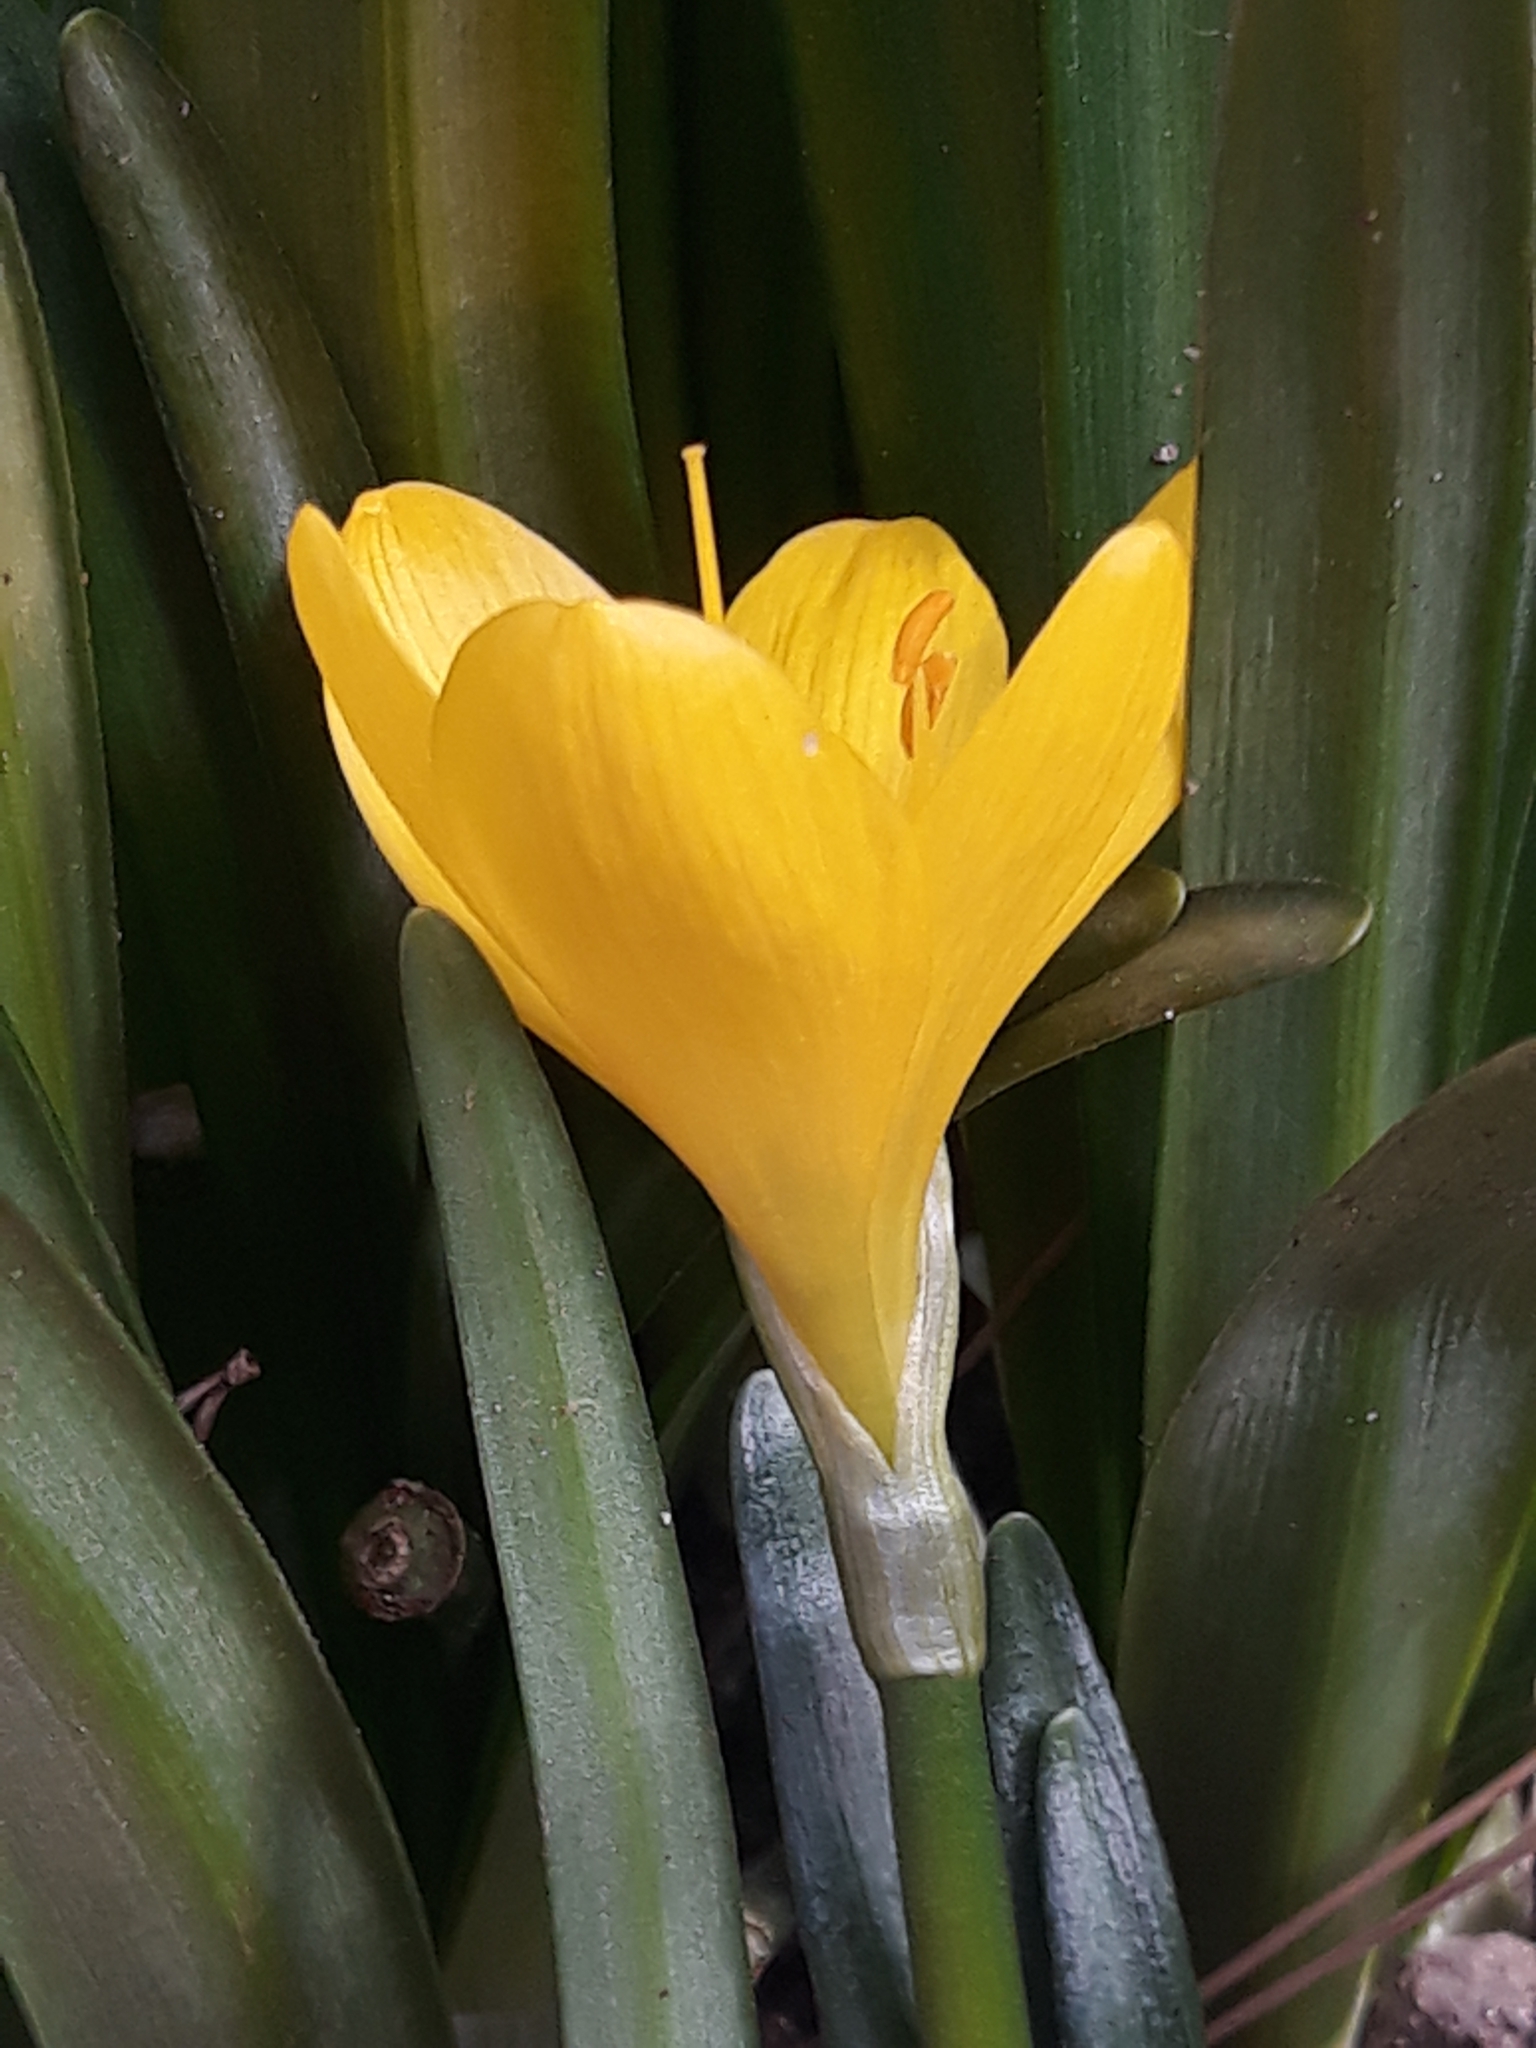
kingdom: Plantae
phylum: Tracheophyta
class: Liliopsida
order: Asparagales
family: Amaryllidaceae
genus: Sternbergia
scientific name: Sternbergia lutea
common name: Winter daffodil
